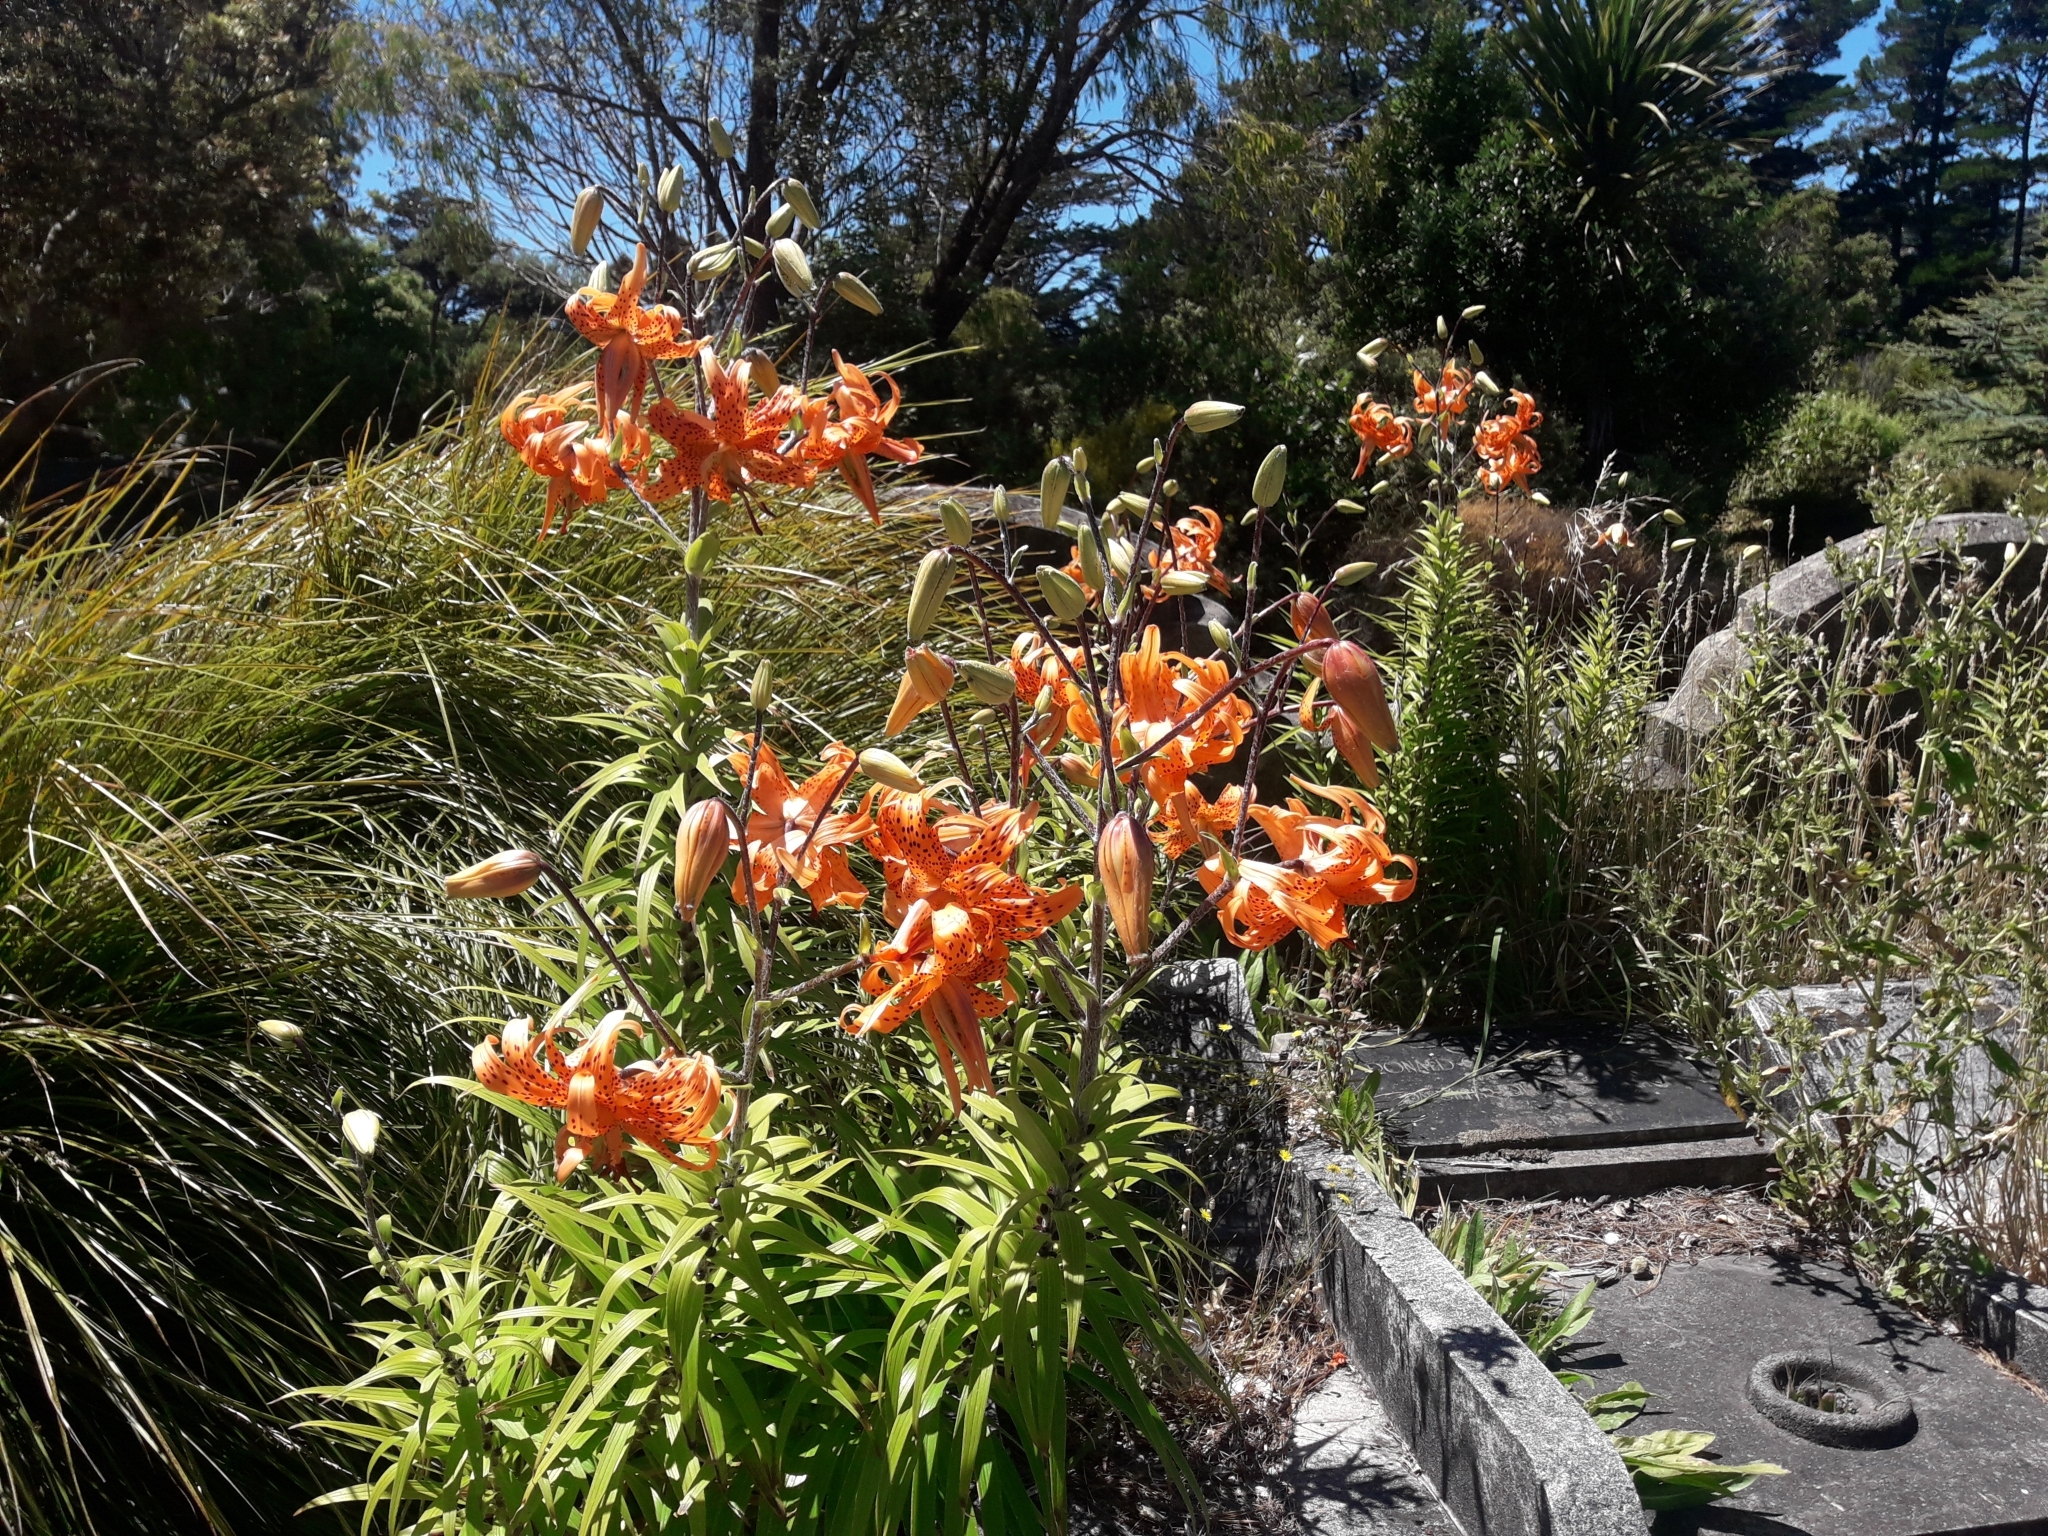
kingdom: Plantae
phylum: Tracheophyta
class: Liliopsida
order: Liliales
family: Liliaceae
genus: Lilium
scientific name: Lilium lancifolium
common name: Tiger lily
